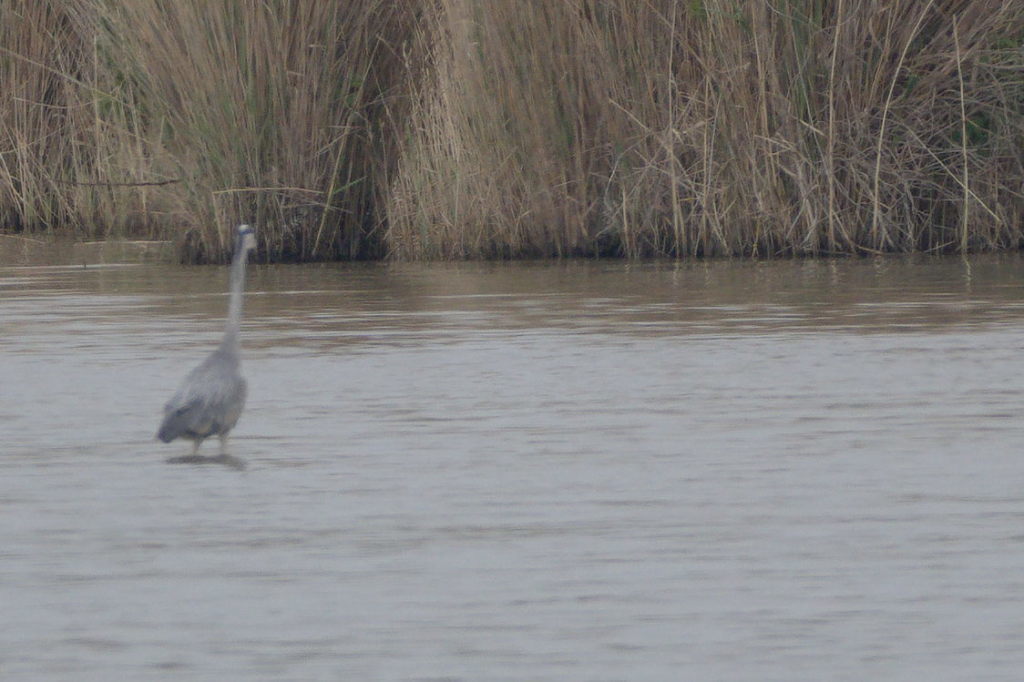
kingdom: Animalia
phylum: Chordata
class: Aves
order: Pelecaniformes
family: Ardeidae
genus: Ardea
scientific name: Ardea cinerea
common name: Grey heron
